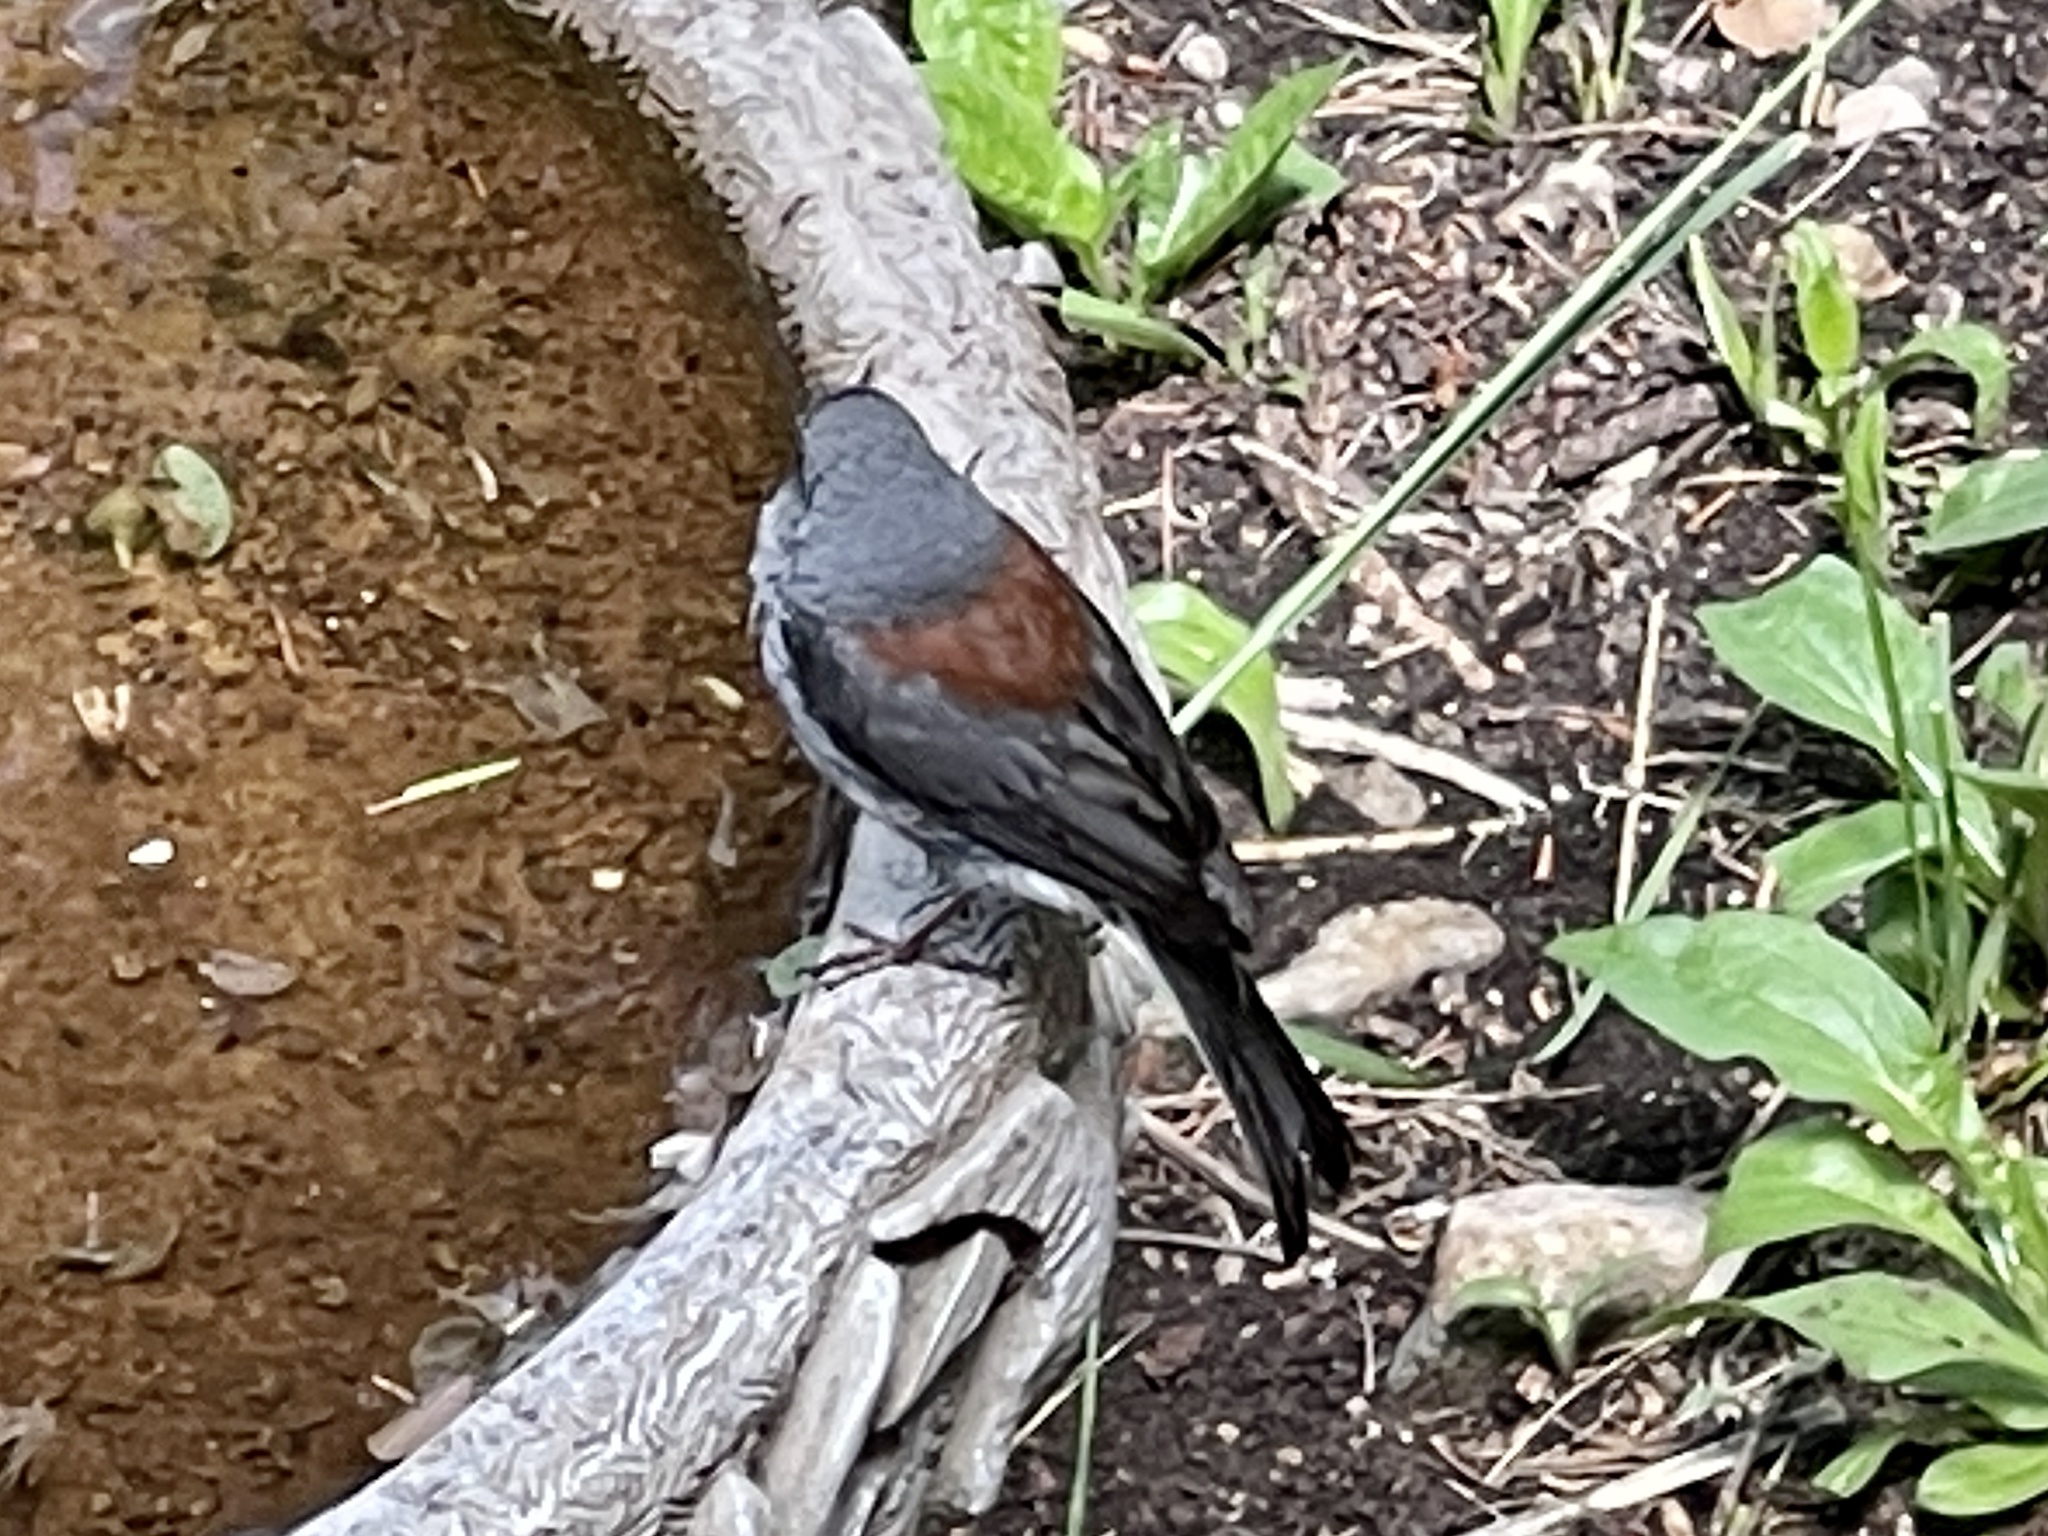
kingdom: Animalia
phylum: Chordata
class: Aves
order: Passeriformes
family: Passerellidae
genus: Junco
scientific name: Junco hyemalis
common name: Dark-eyed junco
